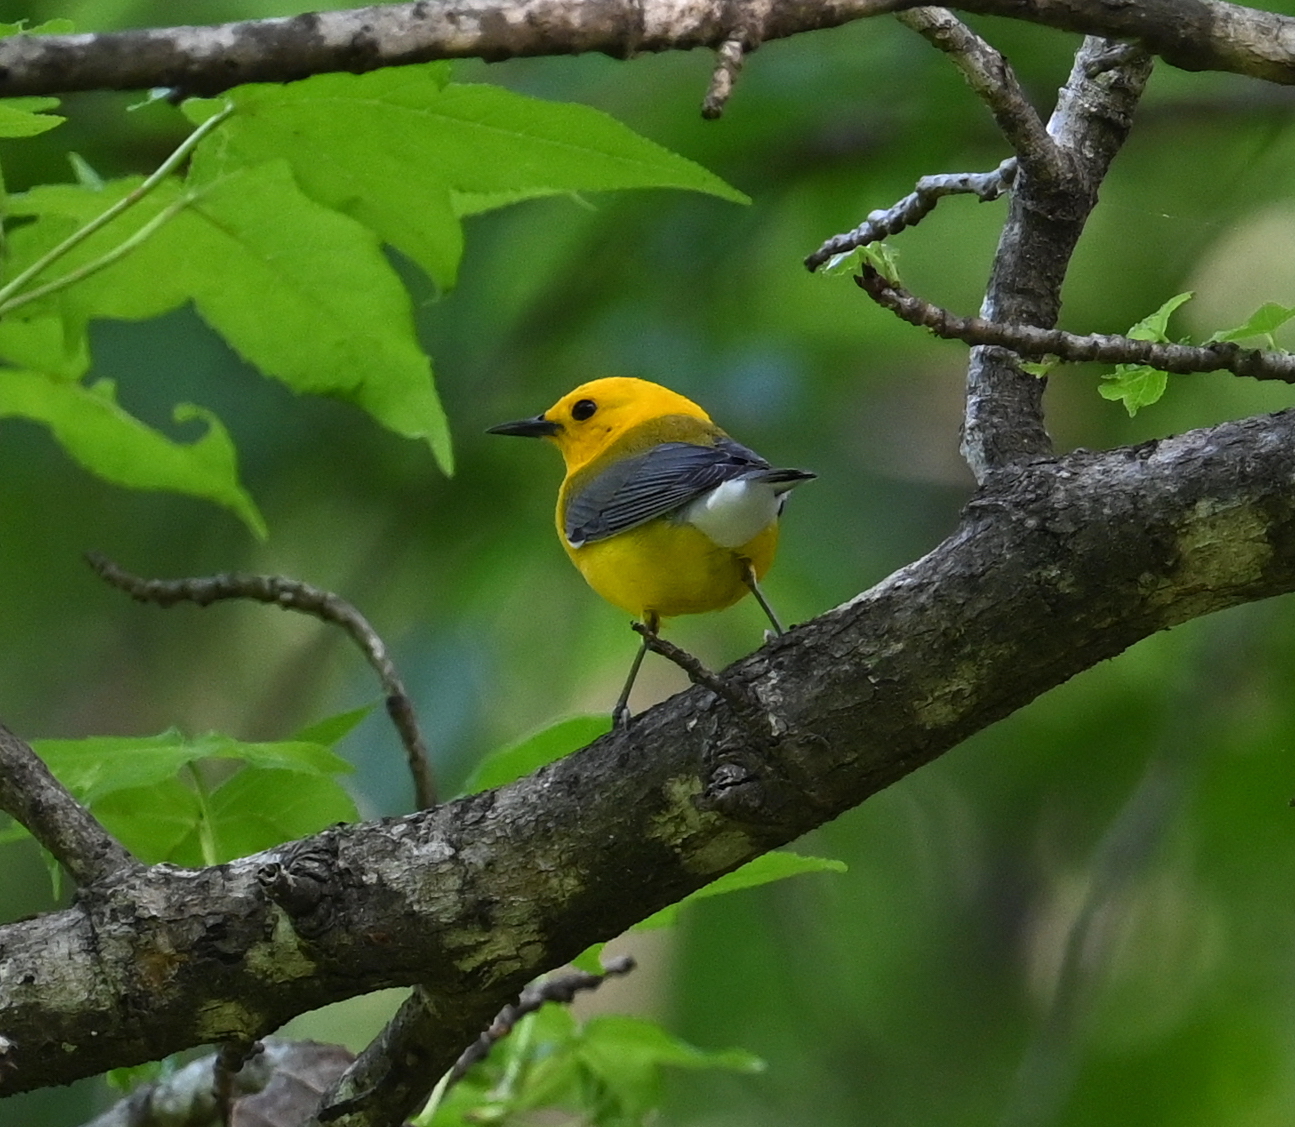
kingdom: Animalia
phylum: Chordata
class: Aves
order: Passeriformes
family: Parulidae
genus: Protonotaria
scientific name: Protonotaria citrea
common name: Prothonotary warbler
